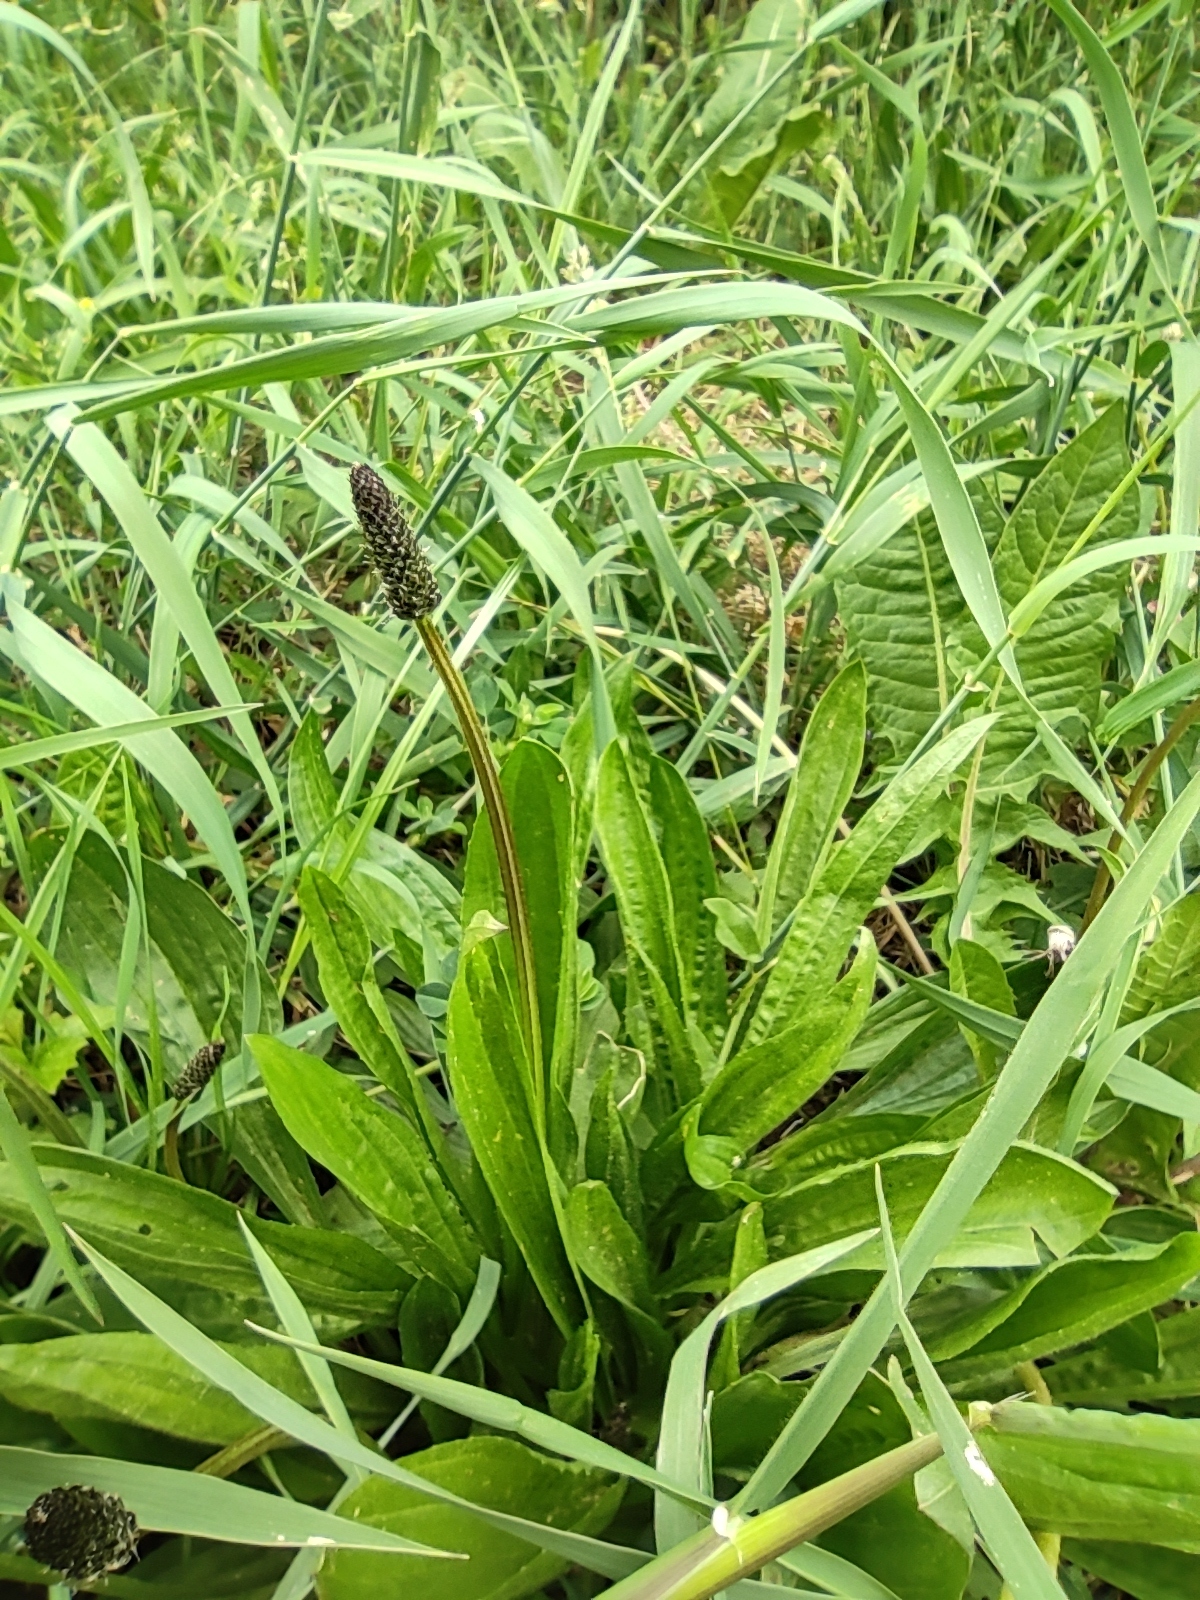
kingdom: Plantae
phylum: Tracheophyta
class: Magnoliopsida
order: Lamiales
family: Plantaginaceae
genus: Plantago
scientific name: Plantago lanceolata
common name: Ribwort plantain
